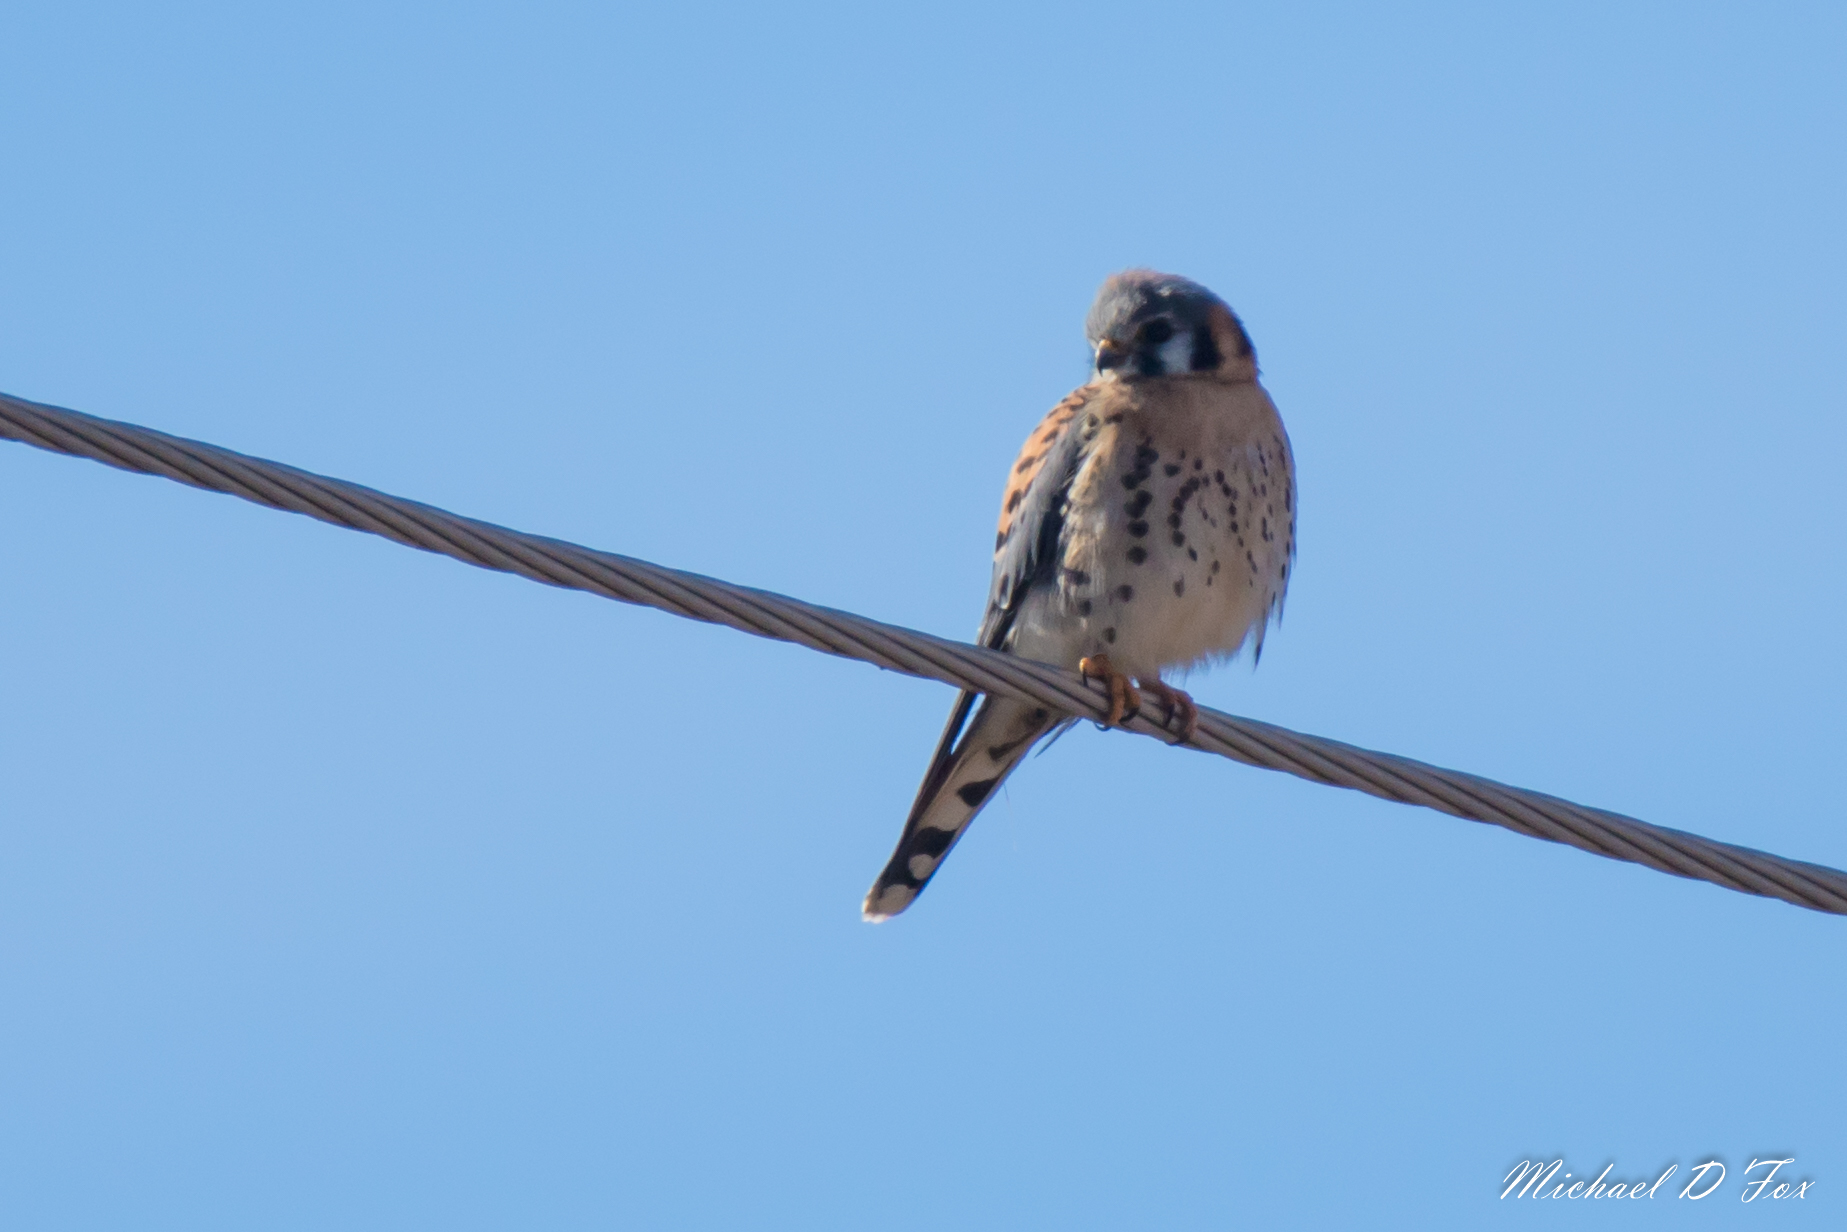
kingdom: Animalia
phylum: Chordata
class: Aves
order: Falconiformes
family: Falconidae
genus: Falco
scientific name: Falco sparverius
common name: American kestrel
